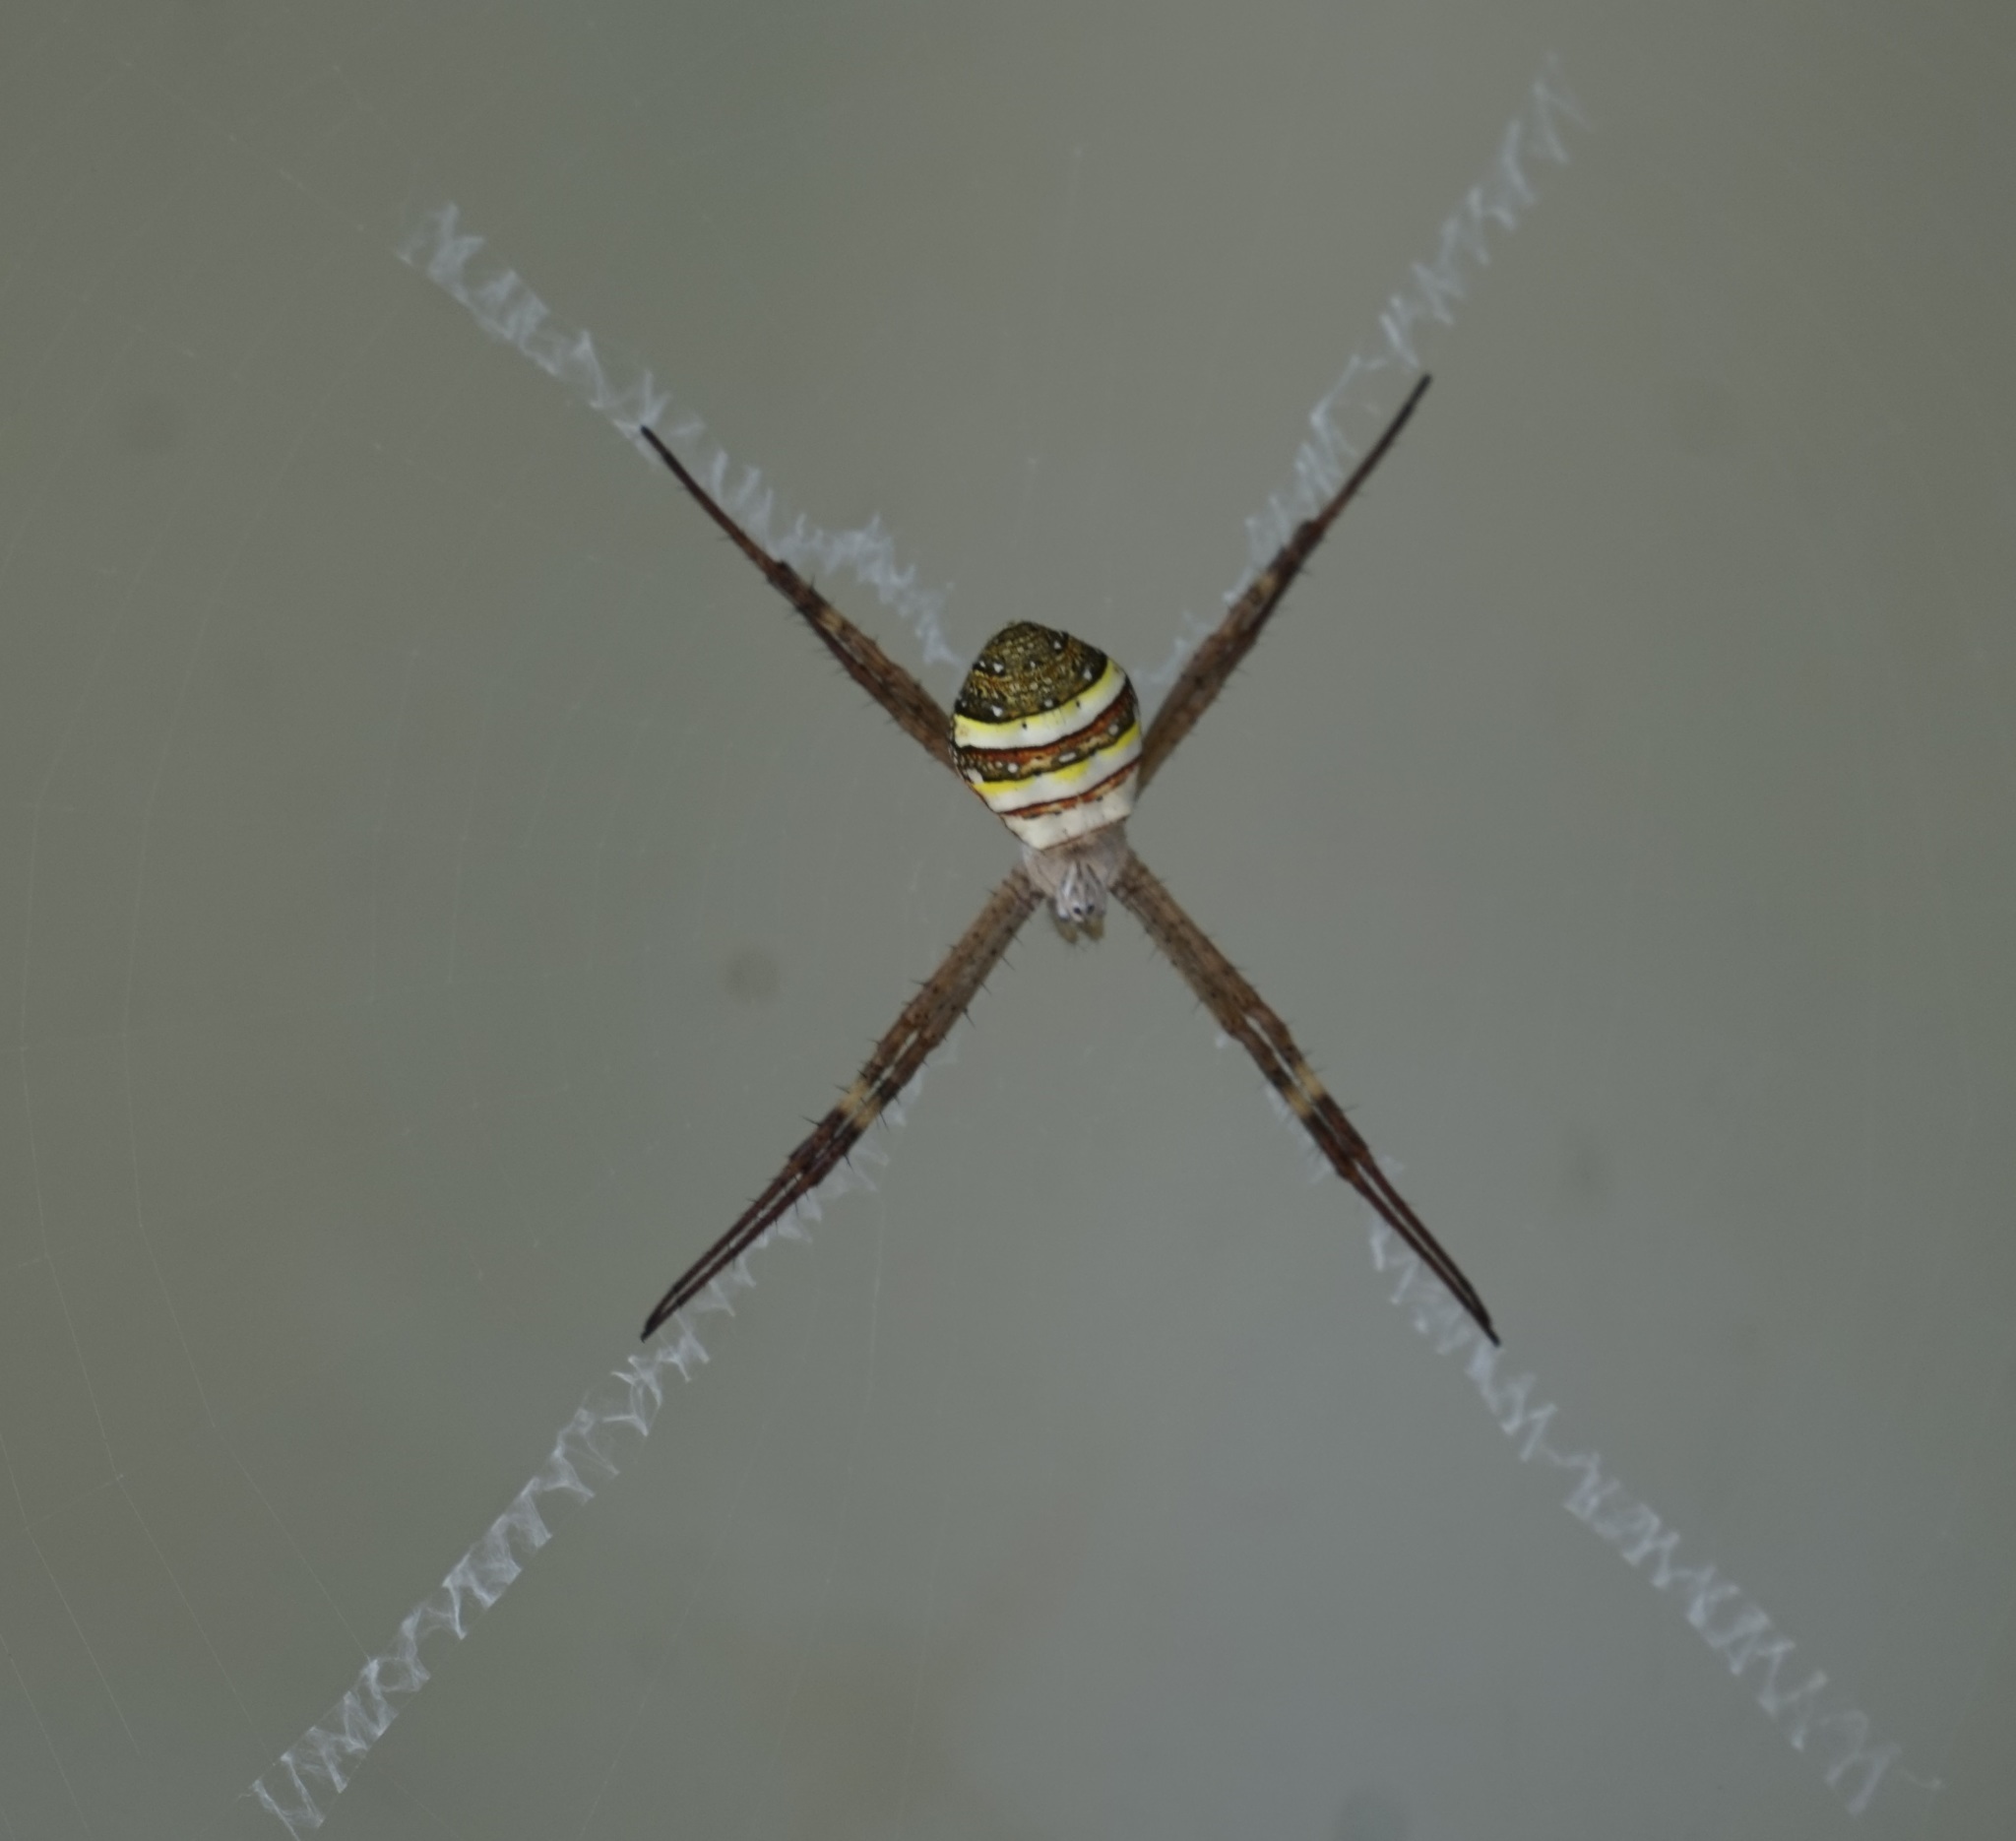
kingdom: Animalia
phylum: Arthropoda
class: Arachnida
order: Araneae
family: Araneidae
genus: Argiope
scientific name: Argiope keyserlingi
